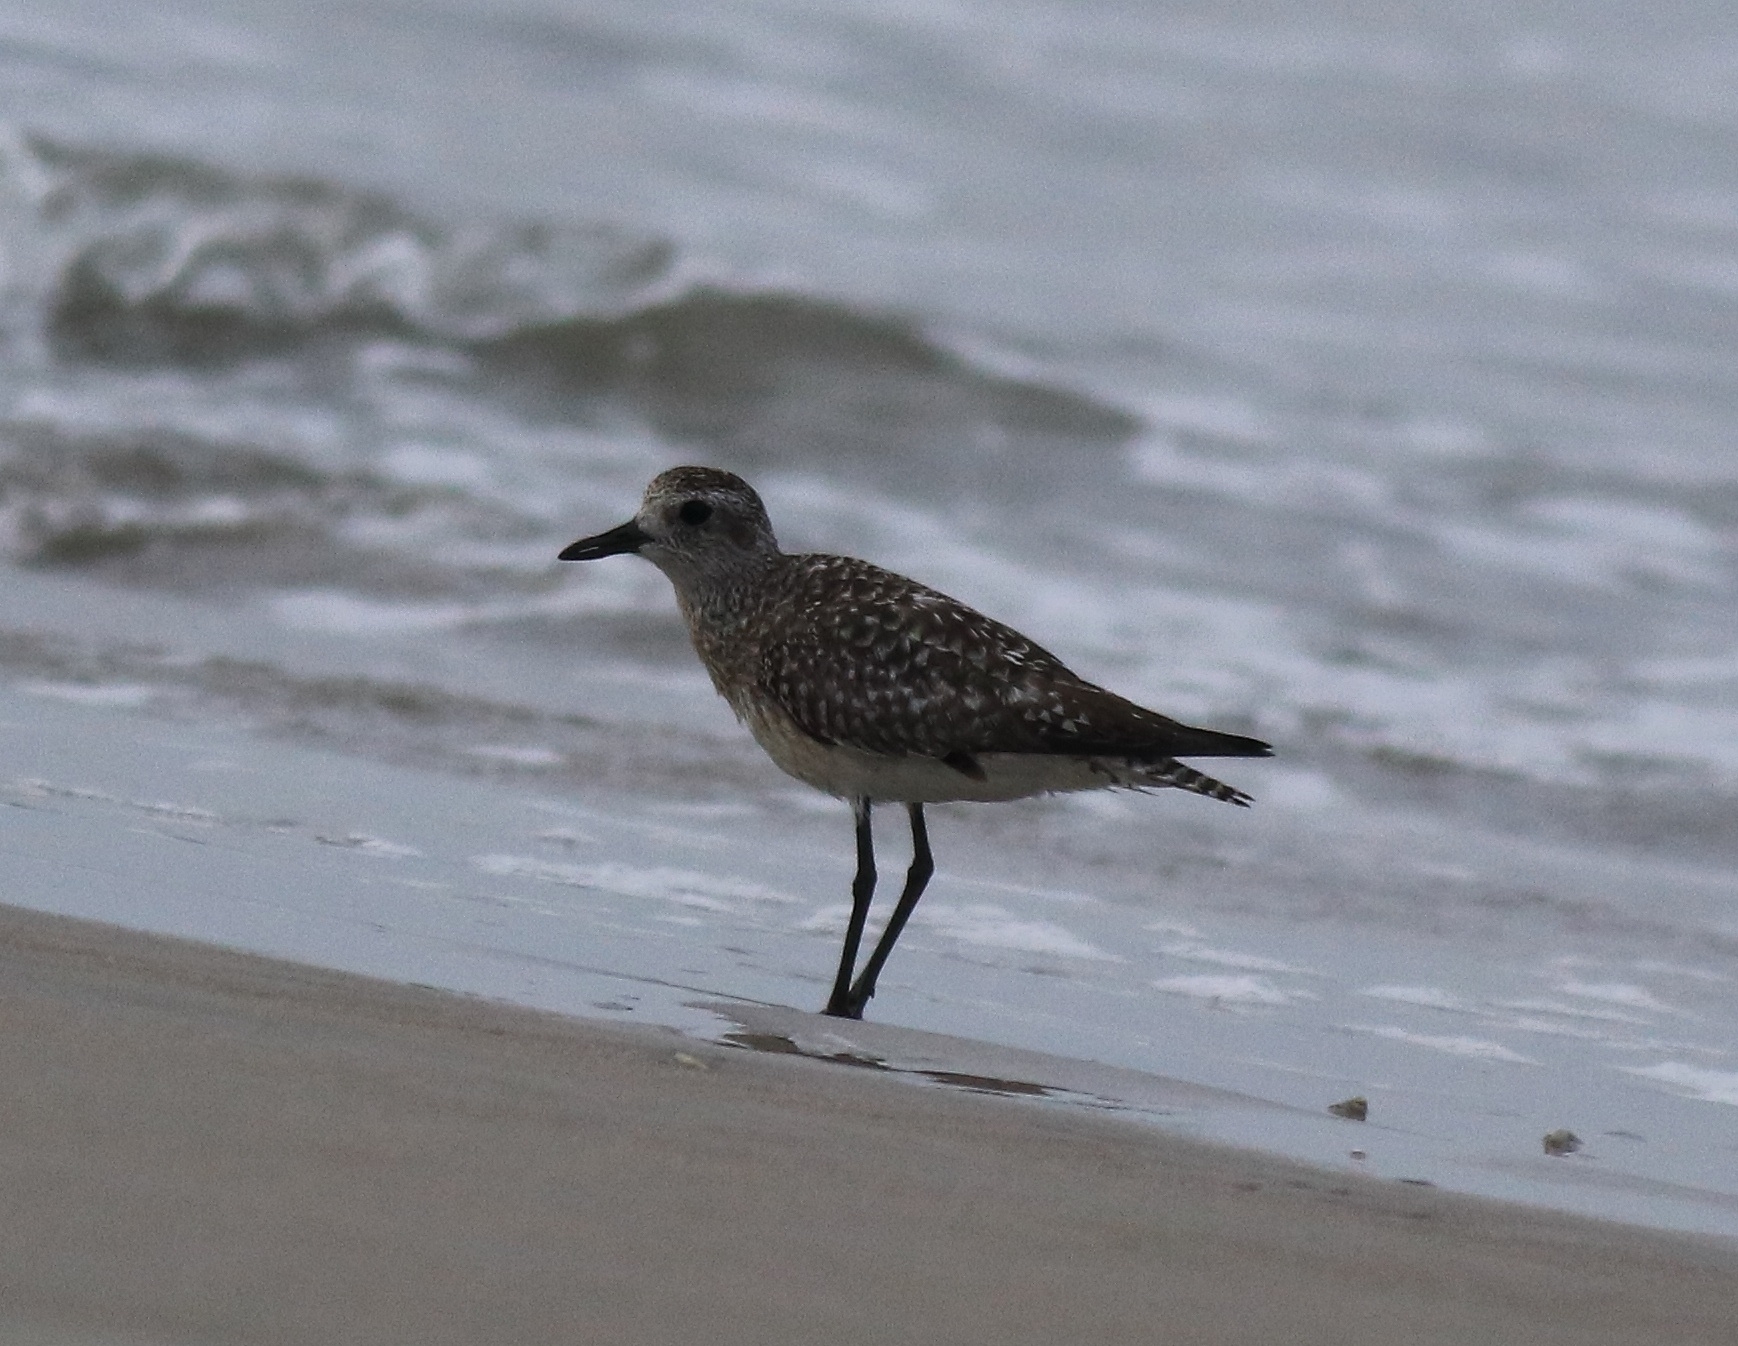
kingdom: Animalia
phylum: Chordata
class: Aves
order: Charadriiformes
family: Charadriidae
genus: Pluvialis
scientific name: Pluvialis squatarola
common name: Grey plover
